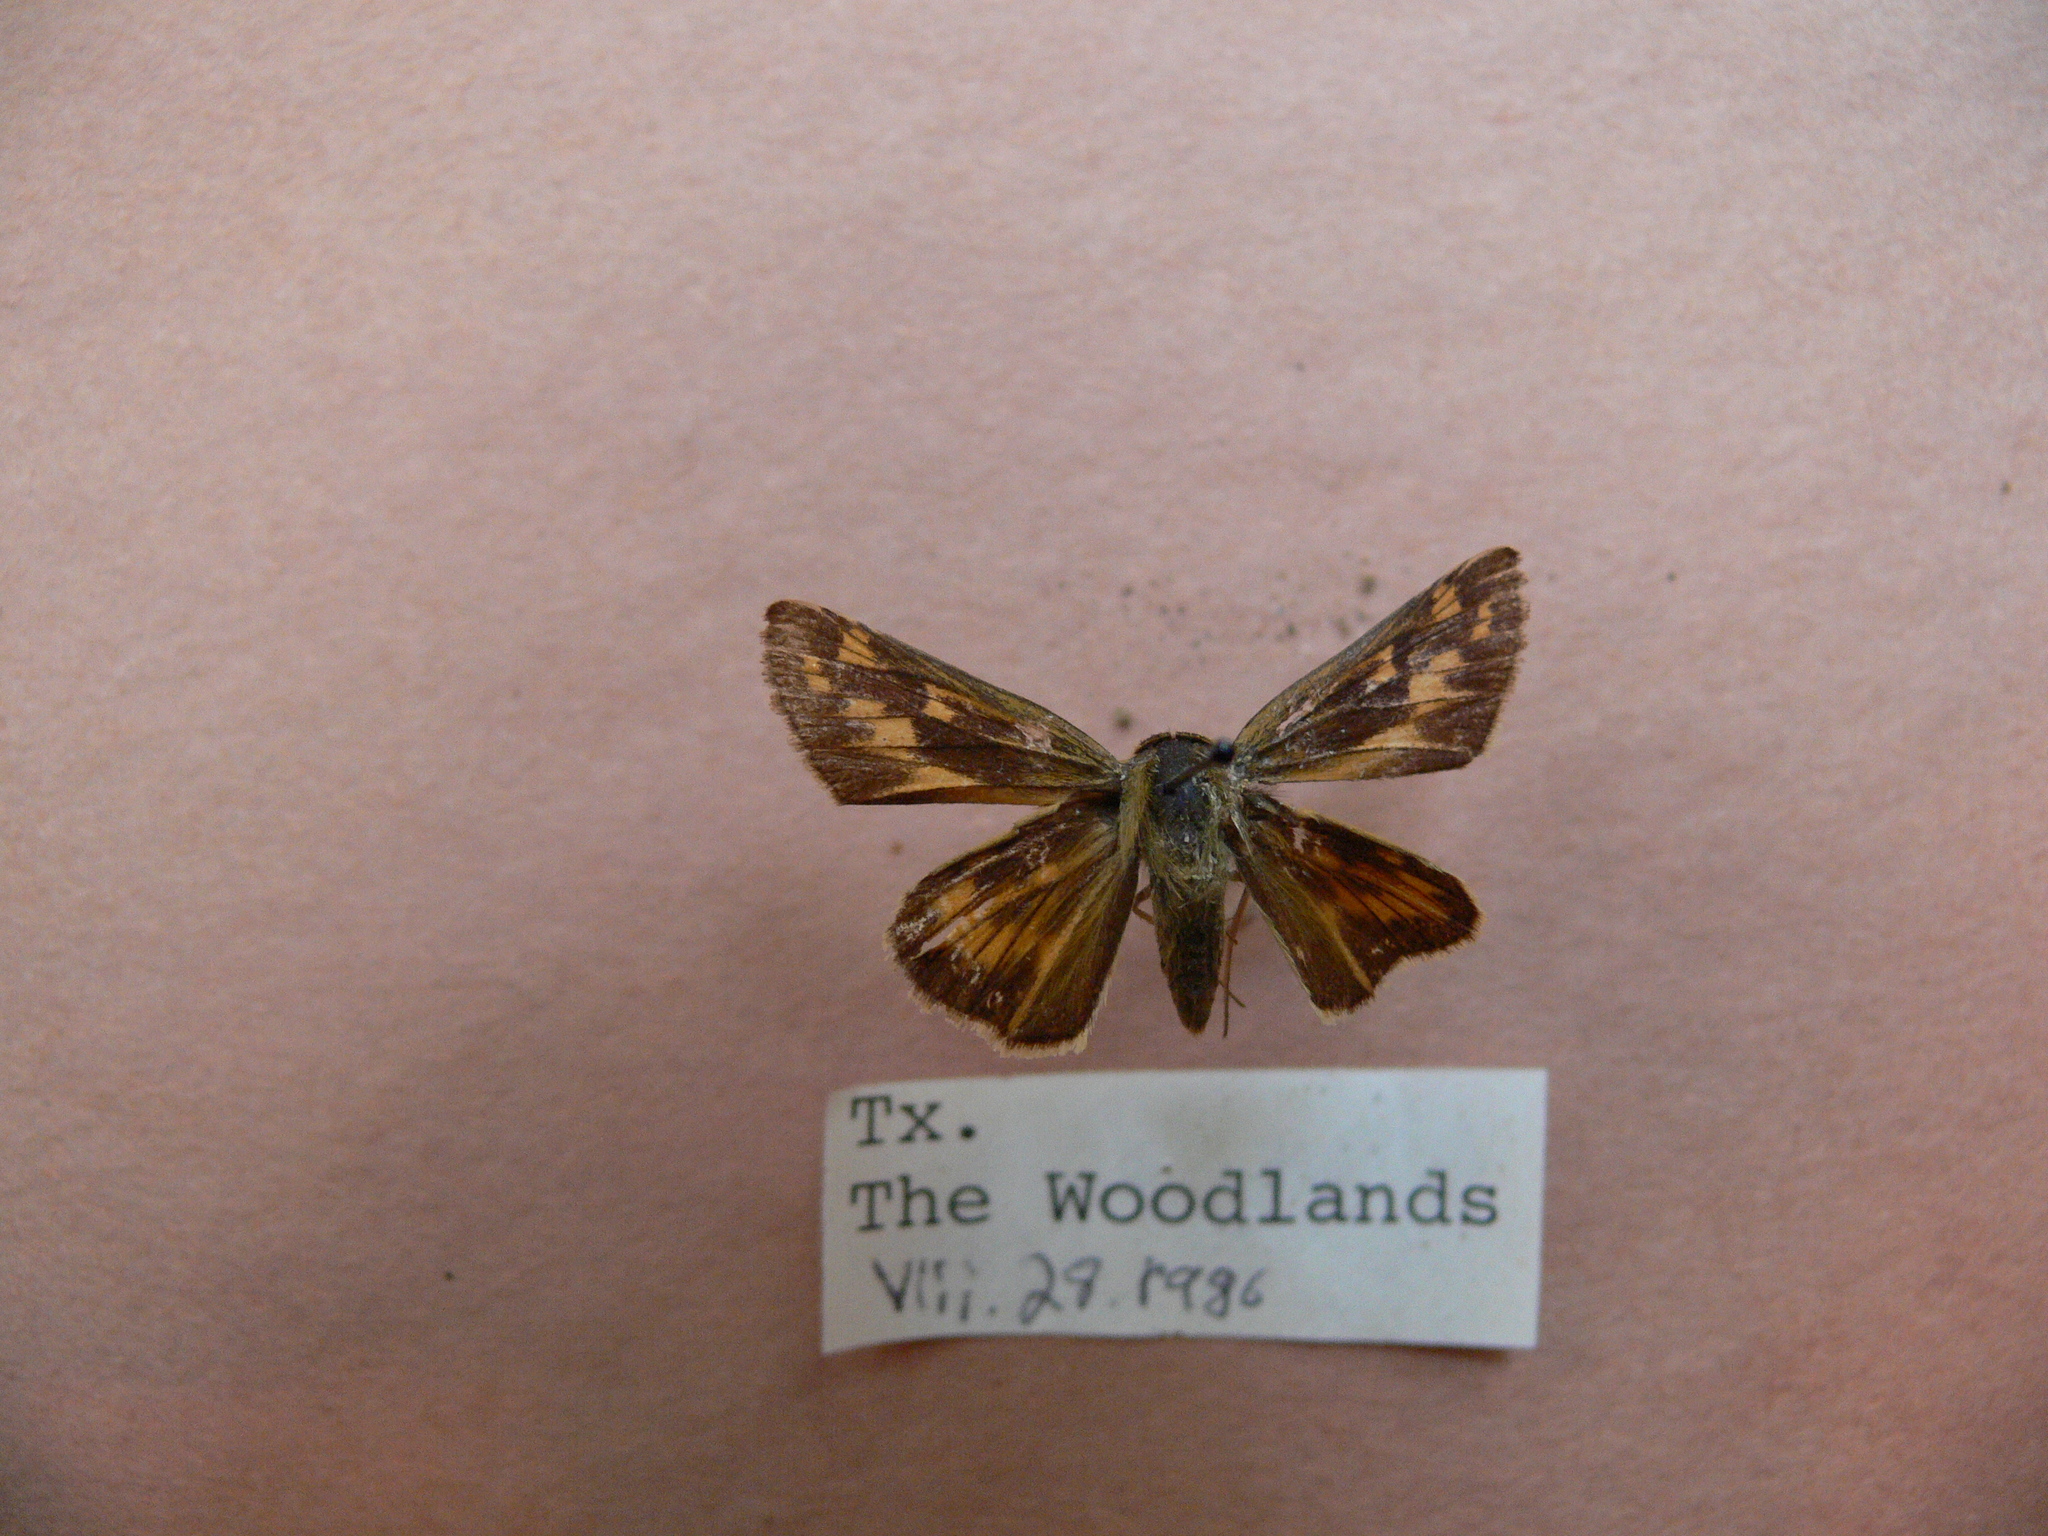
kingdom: Animalia
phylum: Arthropoda
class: Insecta
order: Lepidoptera
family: Hesperiidae
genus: Hylephila
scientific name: Hylephila phyleus
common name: Fiery skipper
